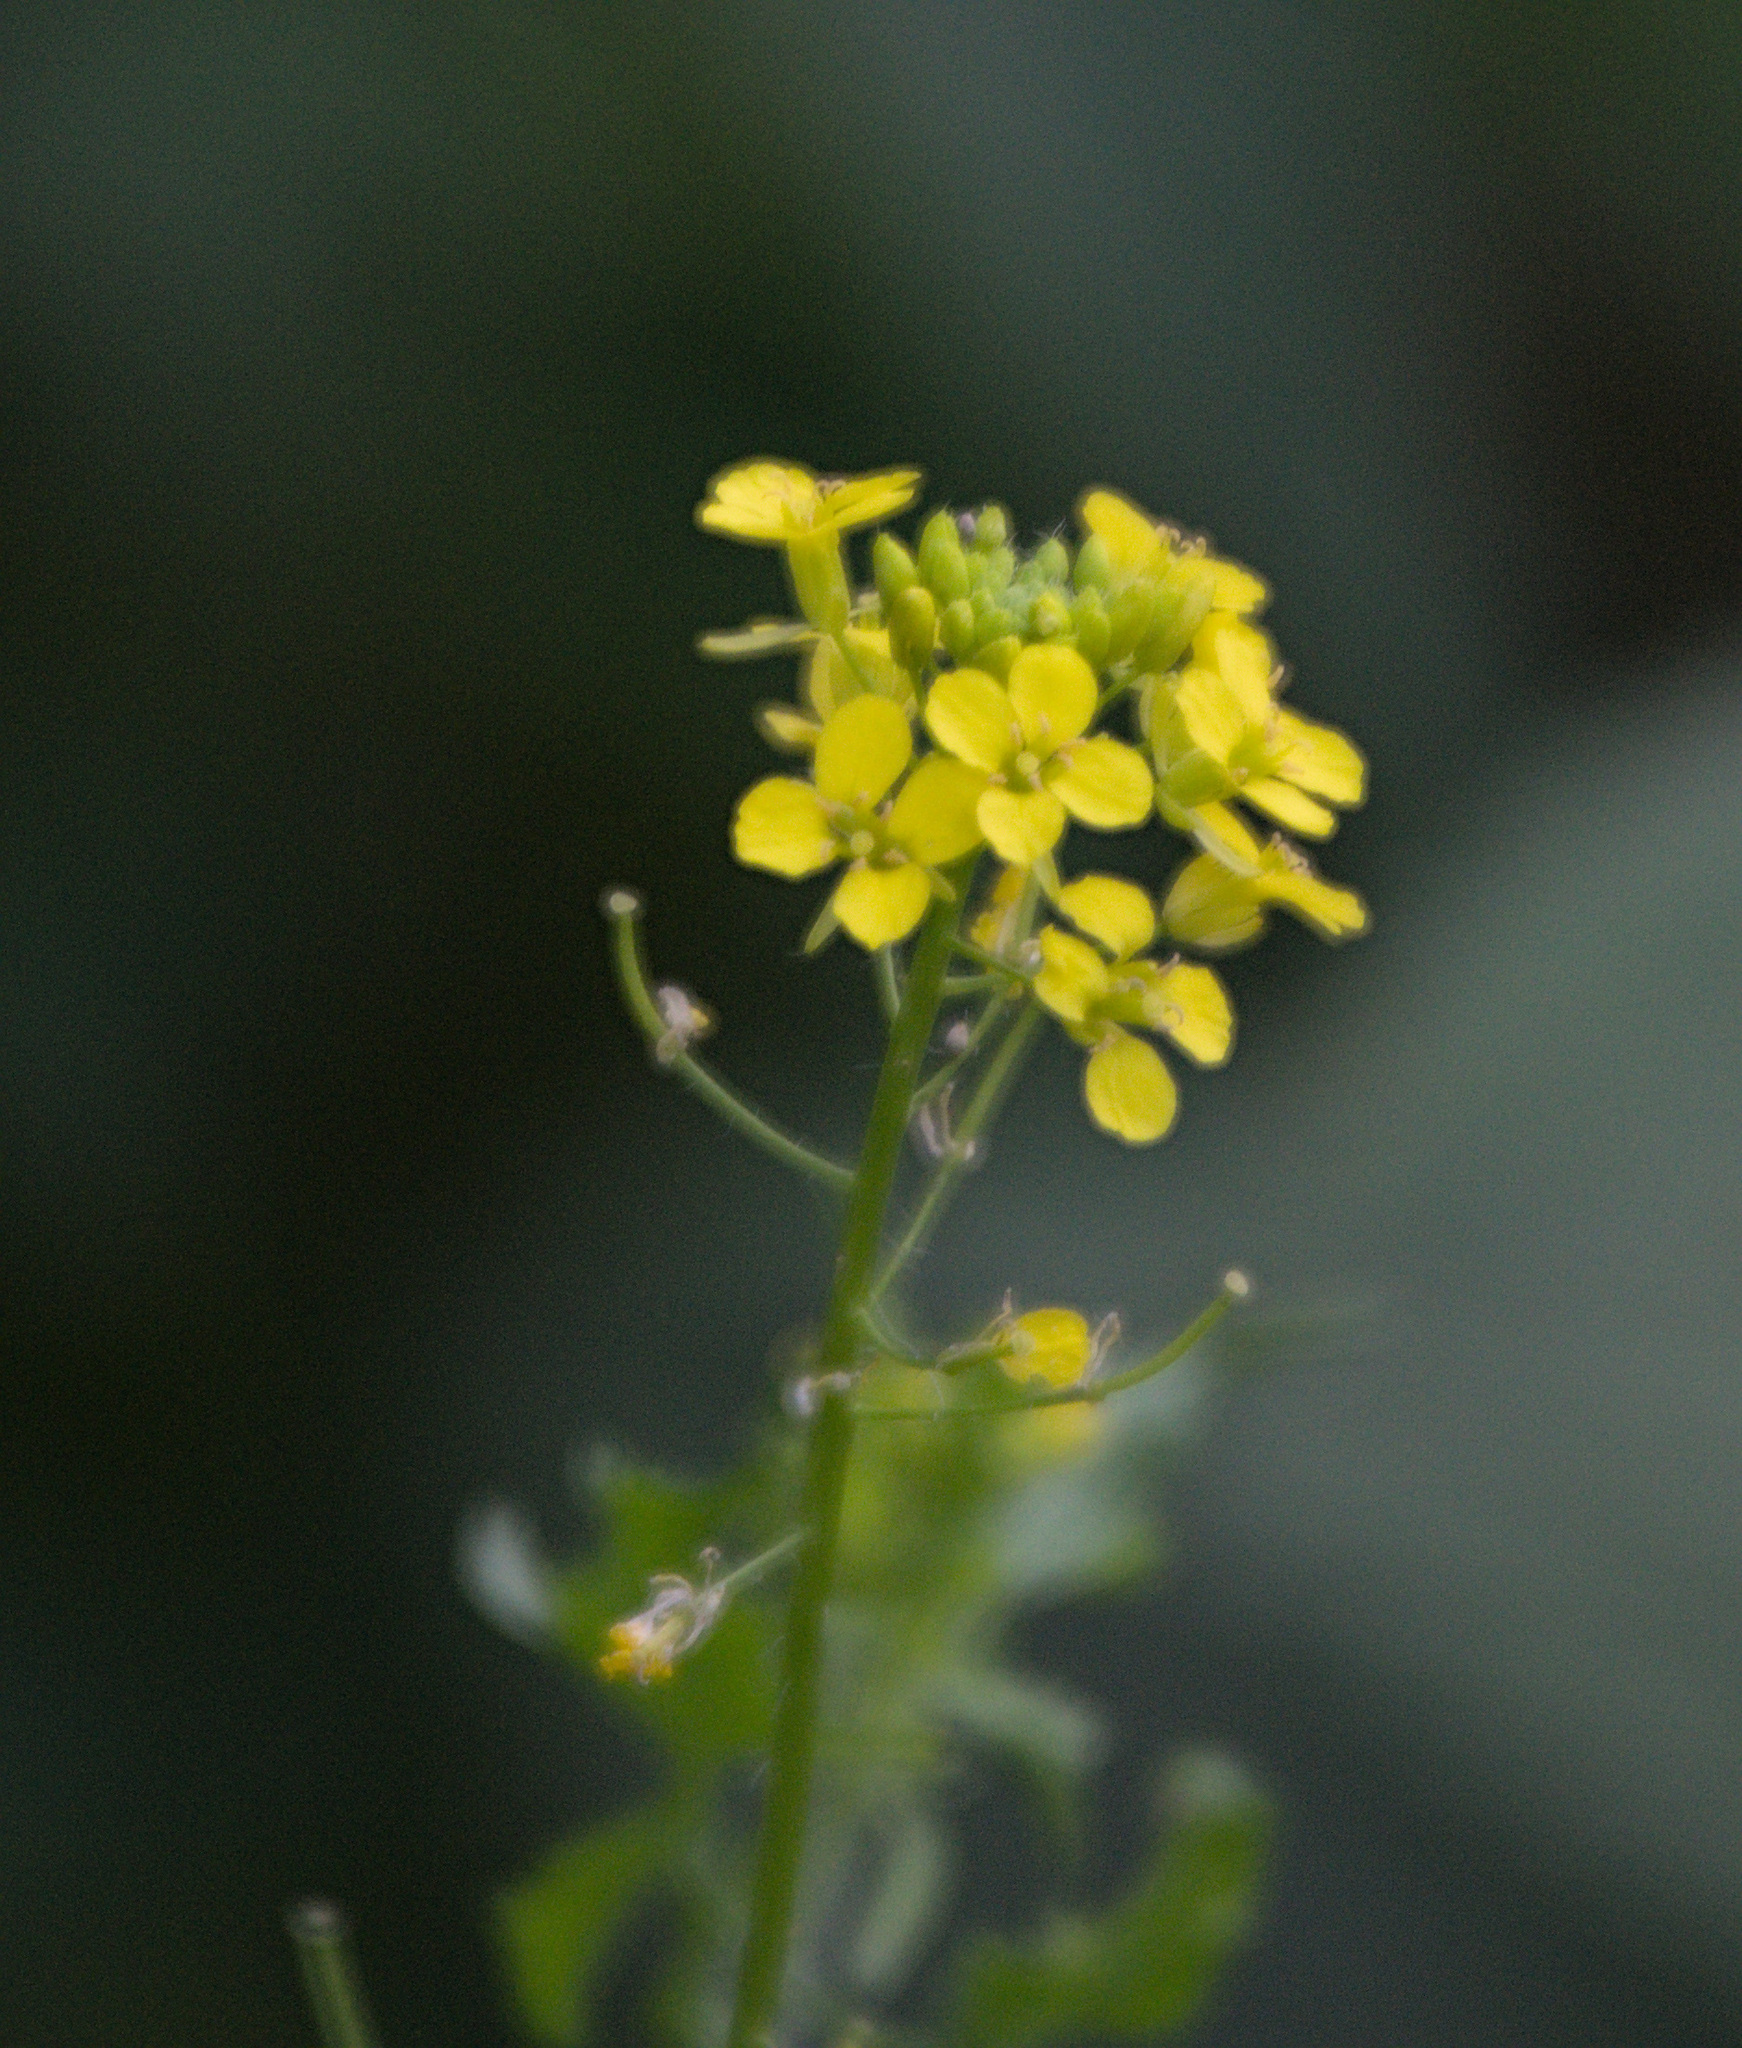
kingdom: Plantae
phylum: Tracheophyta
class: Magnoliopsida
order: Brassicales
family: Brassicaceae
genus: Sisymbrium
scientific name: Sisymbrium loeselii
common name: False london-rocket
